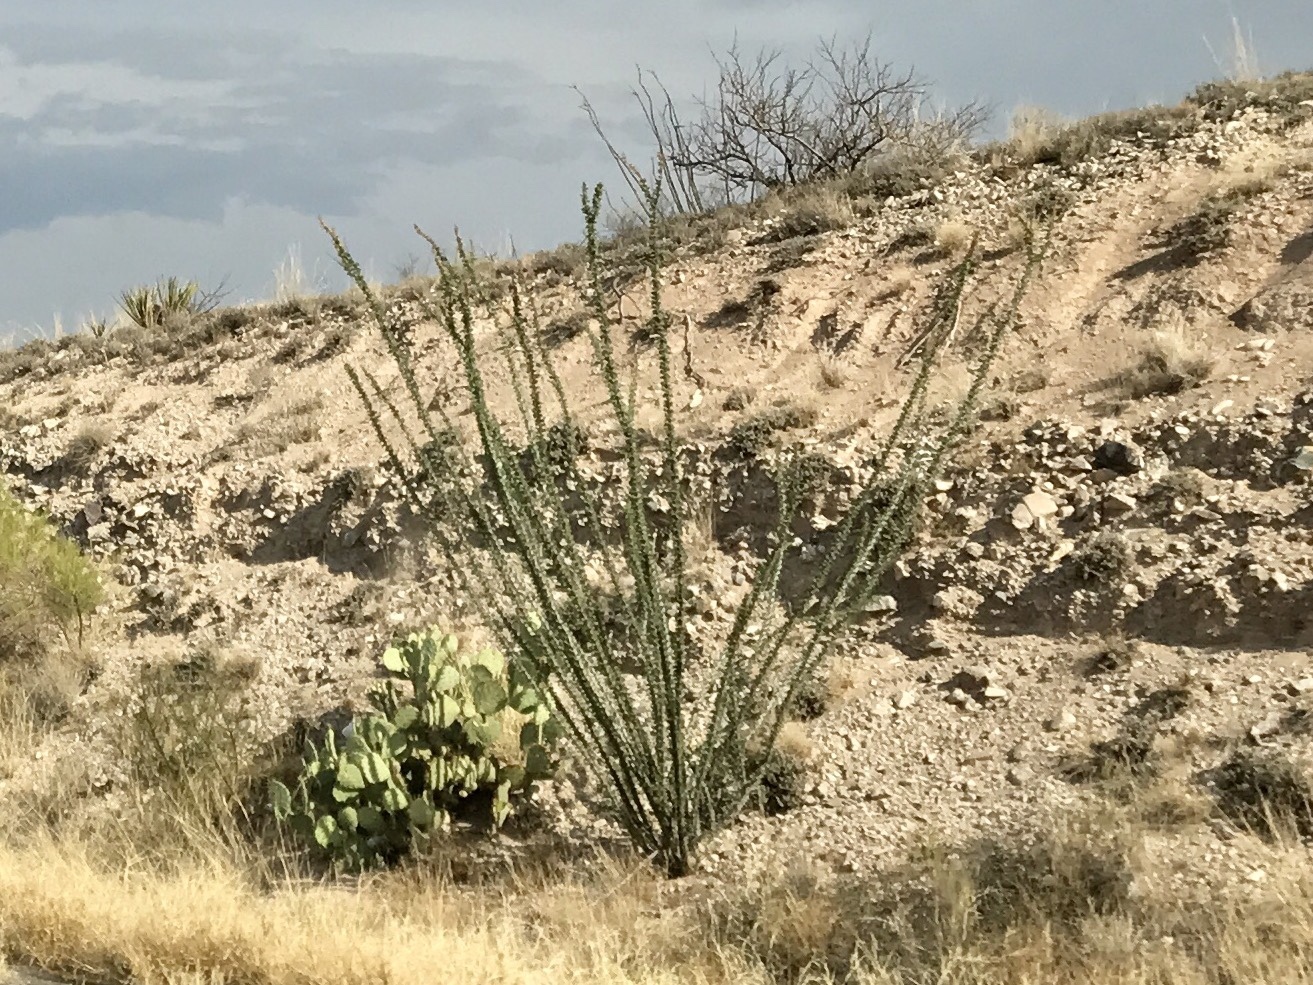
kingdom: Plantae
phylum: Tracheophyta
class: Magnoliopsida
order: Ericales
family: Fouquieriaceae
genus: Fouquieria
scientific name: Fouquieria splendens
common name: Vine-cactus
